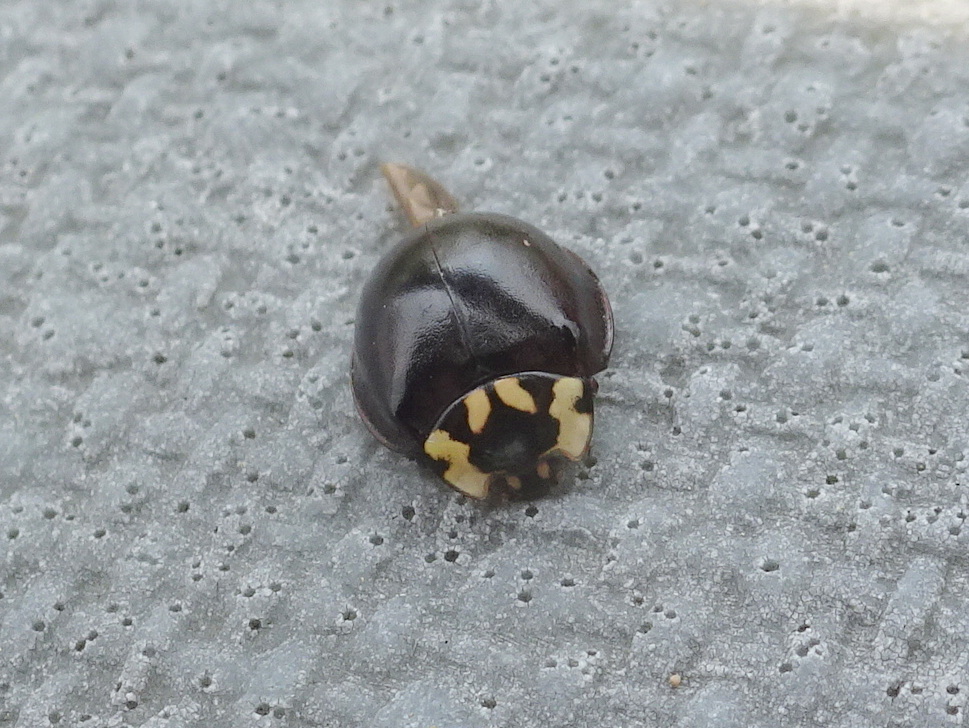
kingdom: Animalia
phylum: Arthropoda
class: Insecta
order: Coleoptera
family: Coccinellidae
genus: Anatis
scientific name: Anatis labiculata
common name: Fifteen-spotted lady beetle
